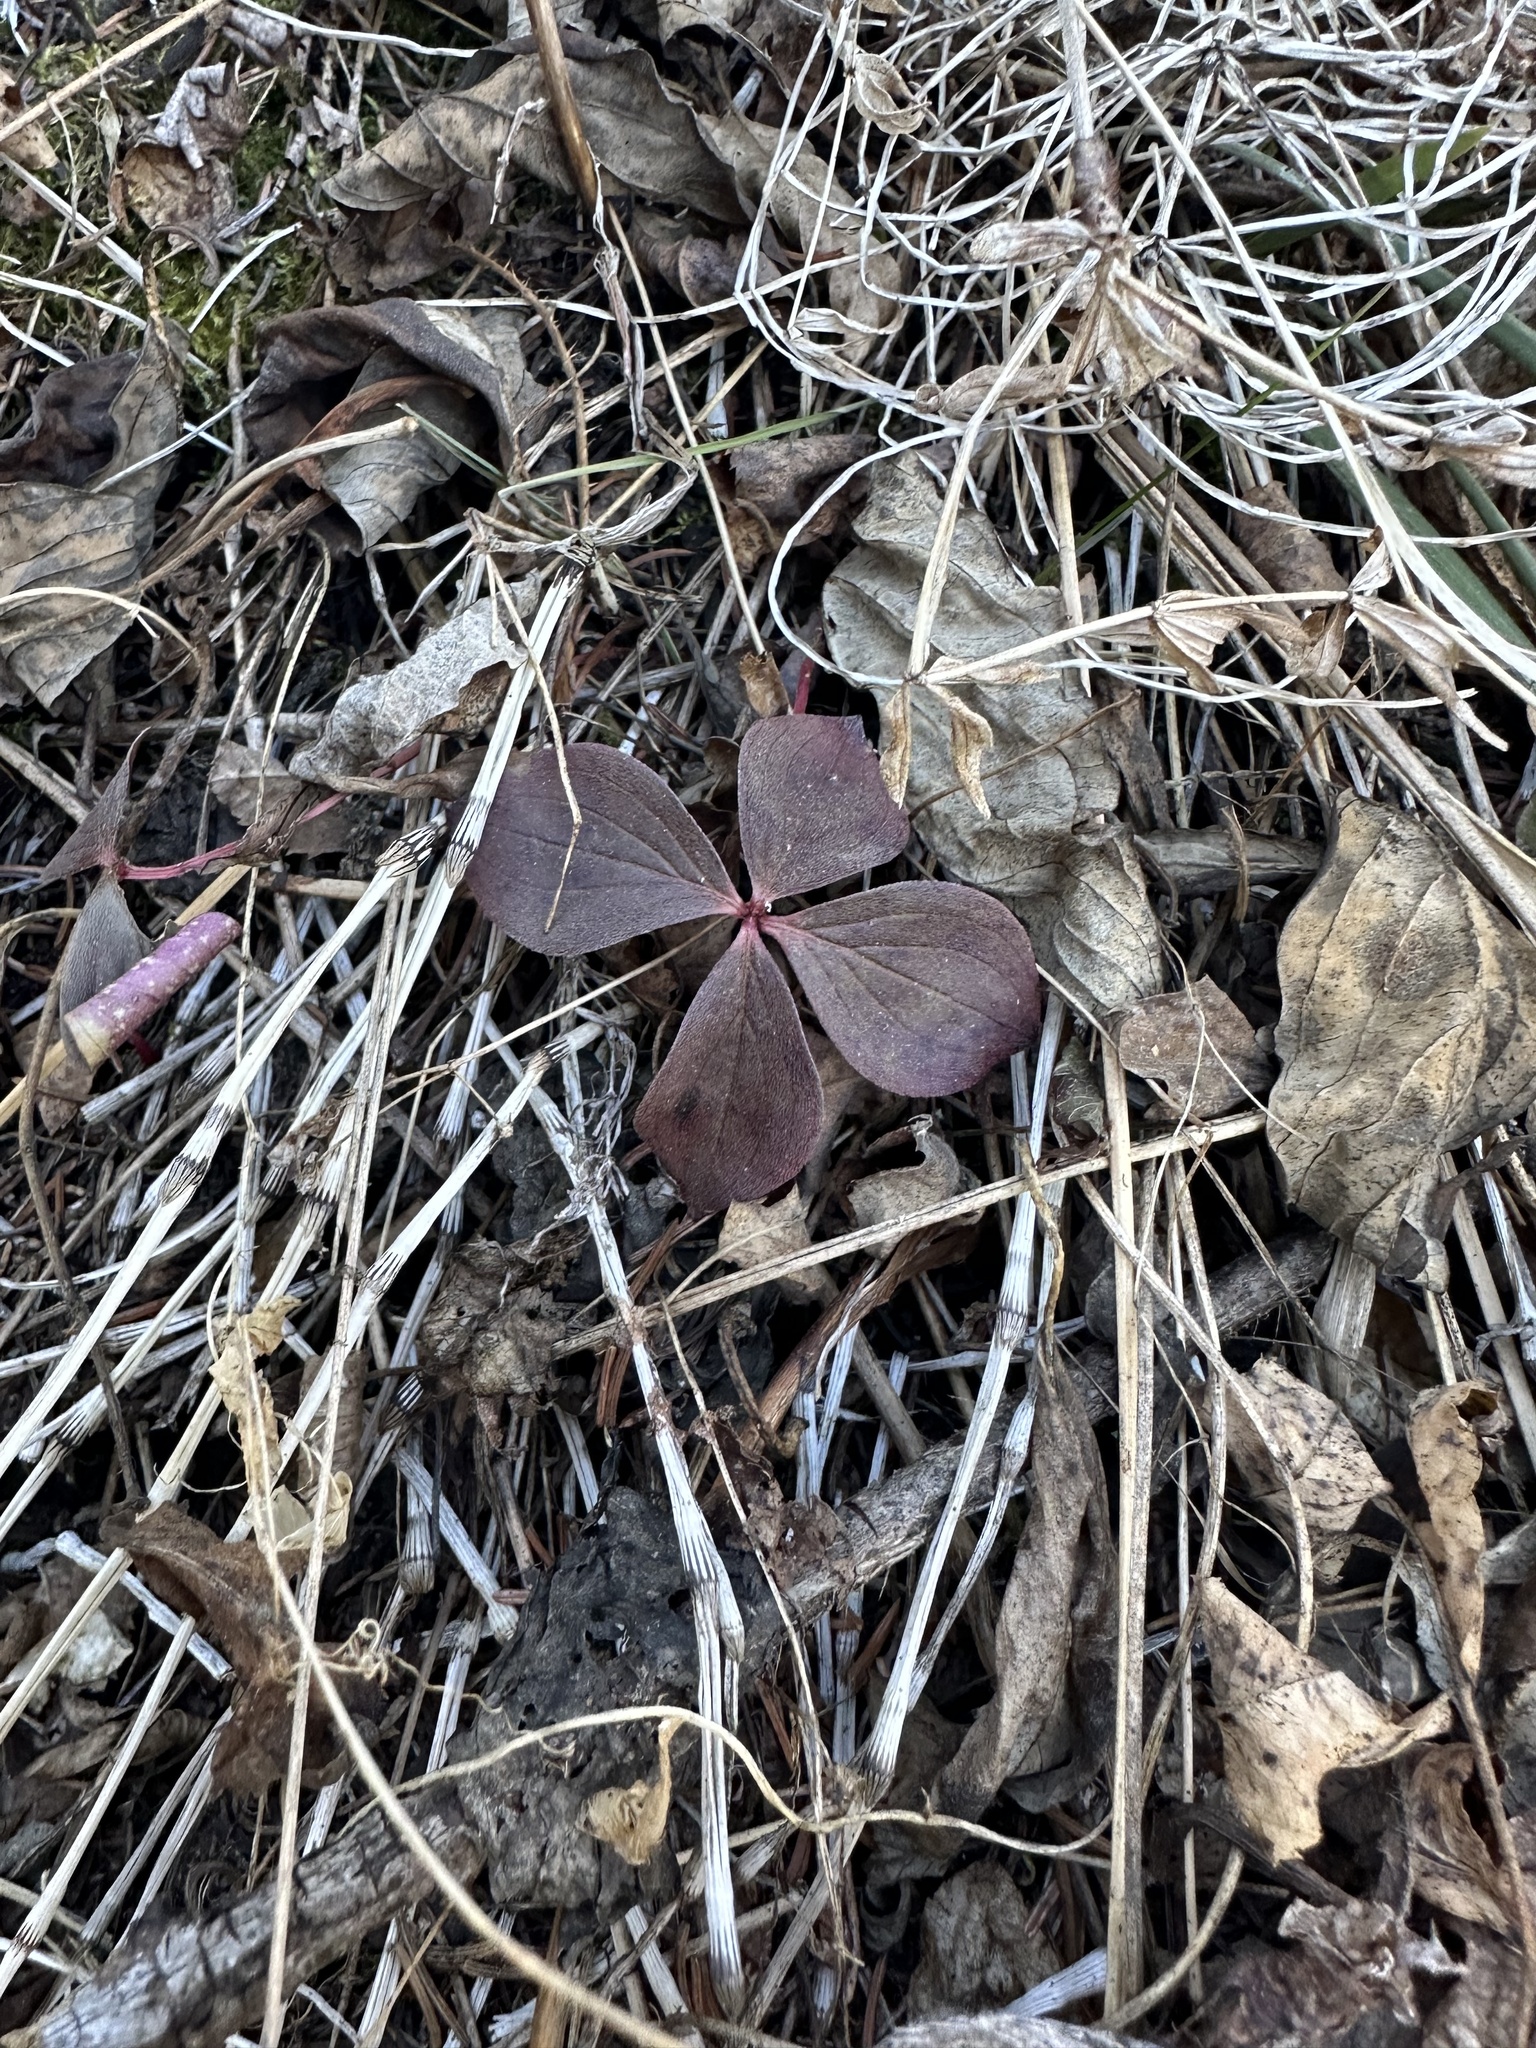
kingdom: Plantae
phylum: Tracheophyta
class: Magnoliopsida
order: Cornales
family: Cornaceae
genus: Cornus
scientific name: Cornus canadensis
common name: Creeping dogwood
